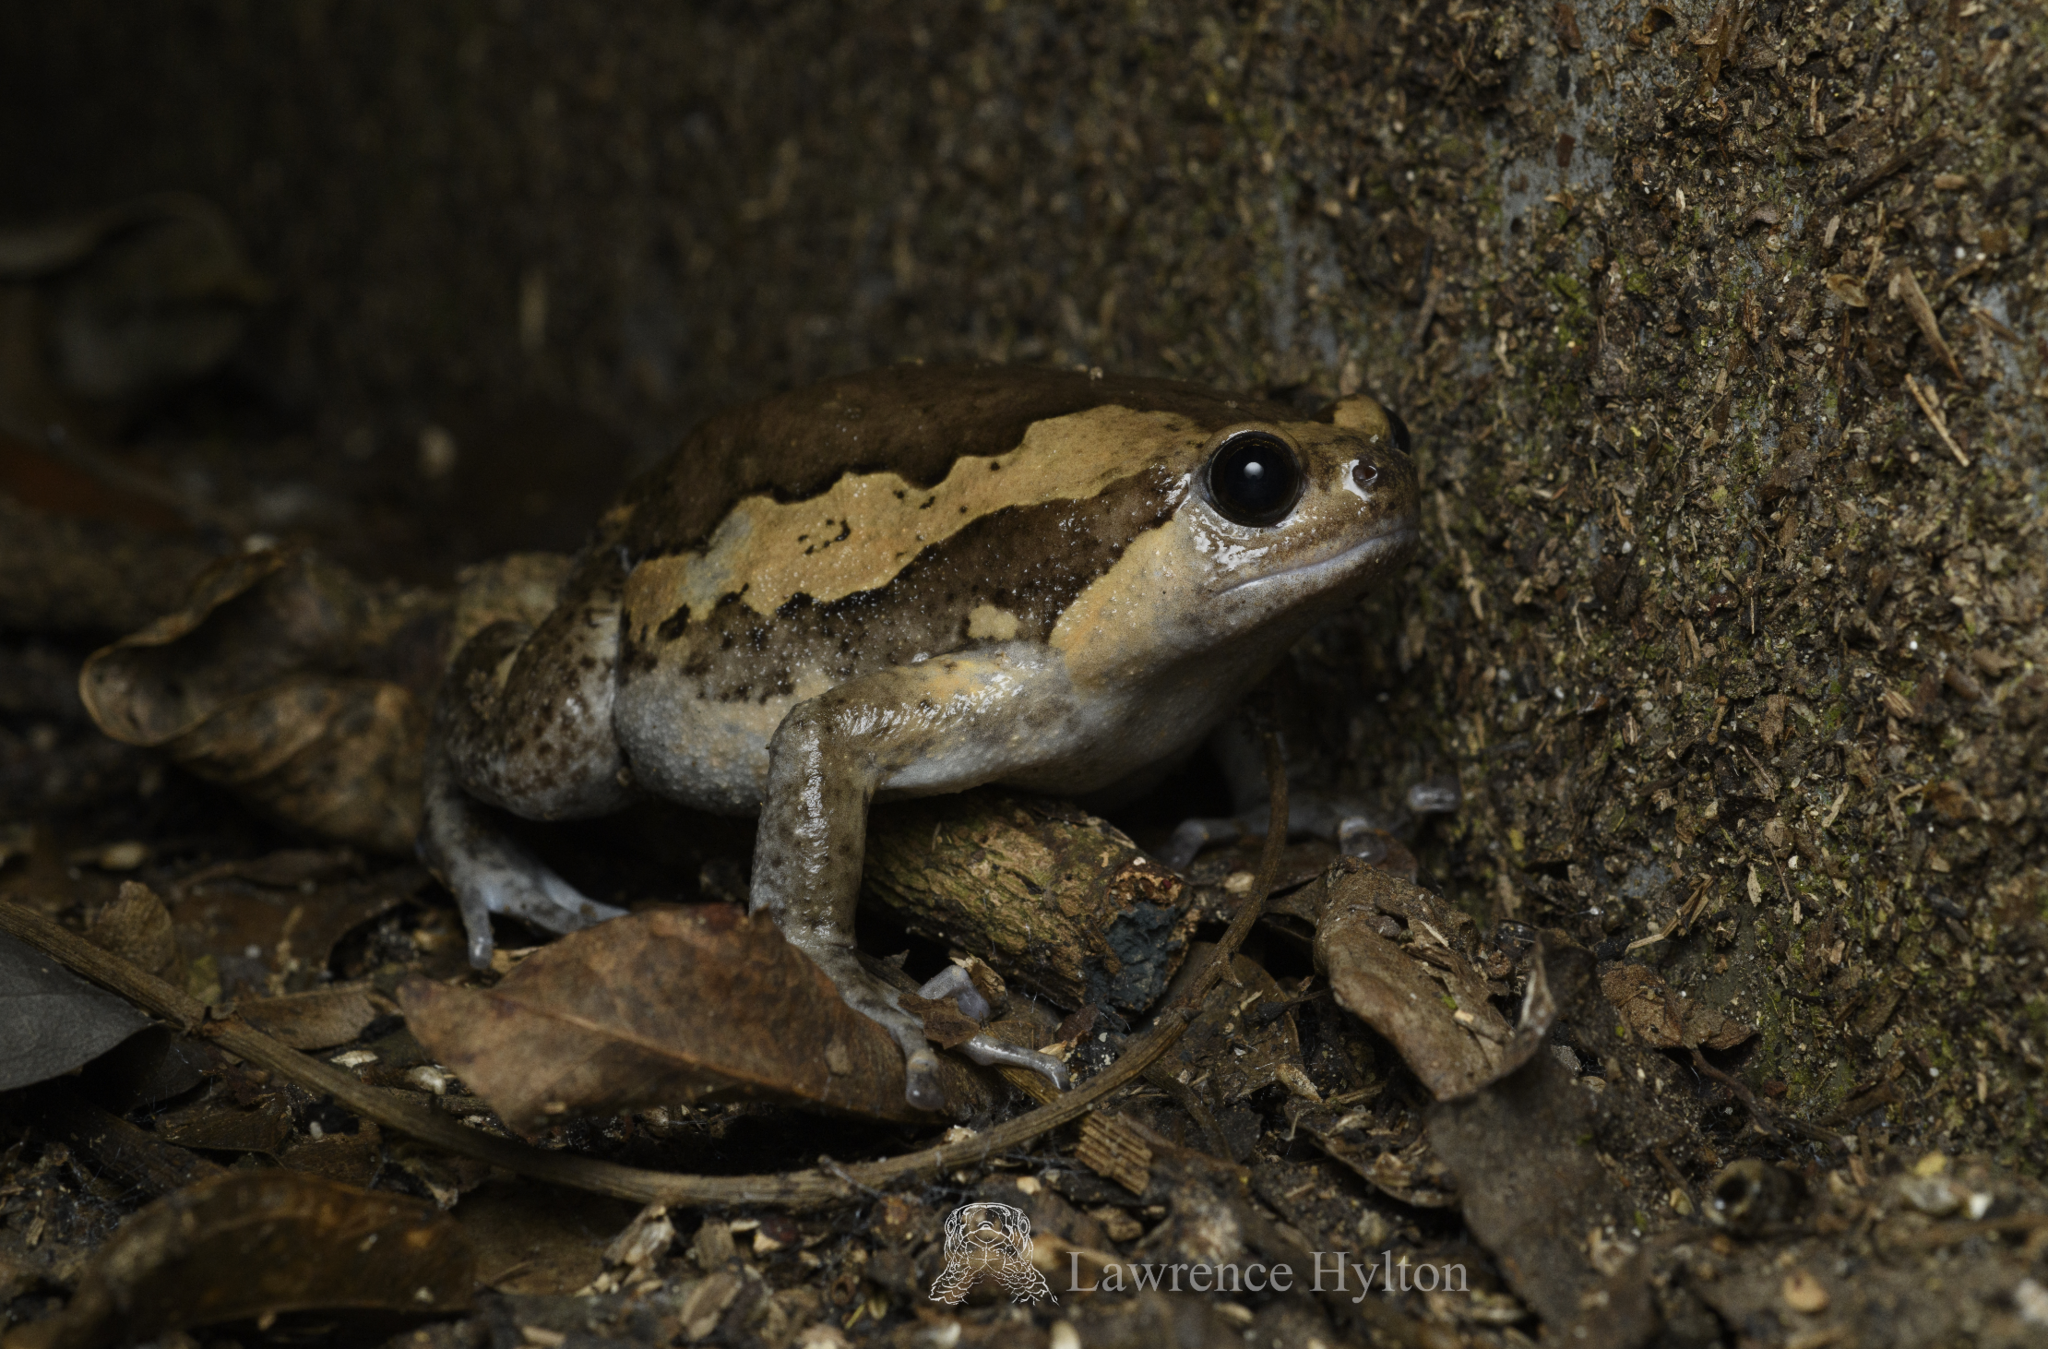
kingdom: Animalia
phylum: Chordata
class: Amphibia
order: Anura
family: Microhylidae
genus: Kaloula
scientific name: Kaloula pulchra
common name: Common,banded bullfrog
